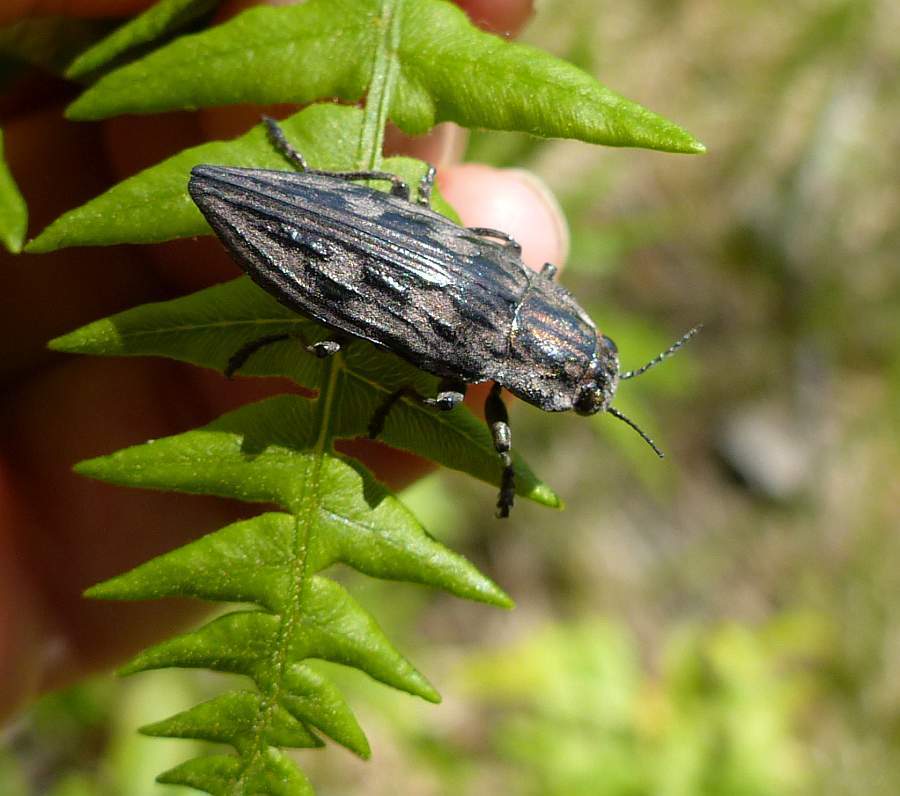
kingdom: Animalia
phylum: Arthropoda
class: Insecta
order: Coleoptera
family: Buprestidae
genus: Chalcophora
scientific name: Chalcophora virginiensis
